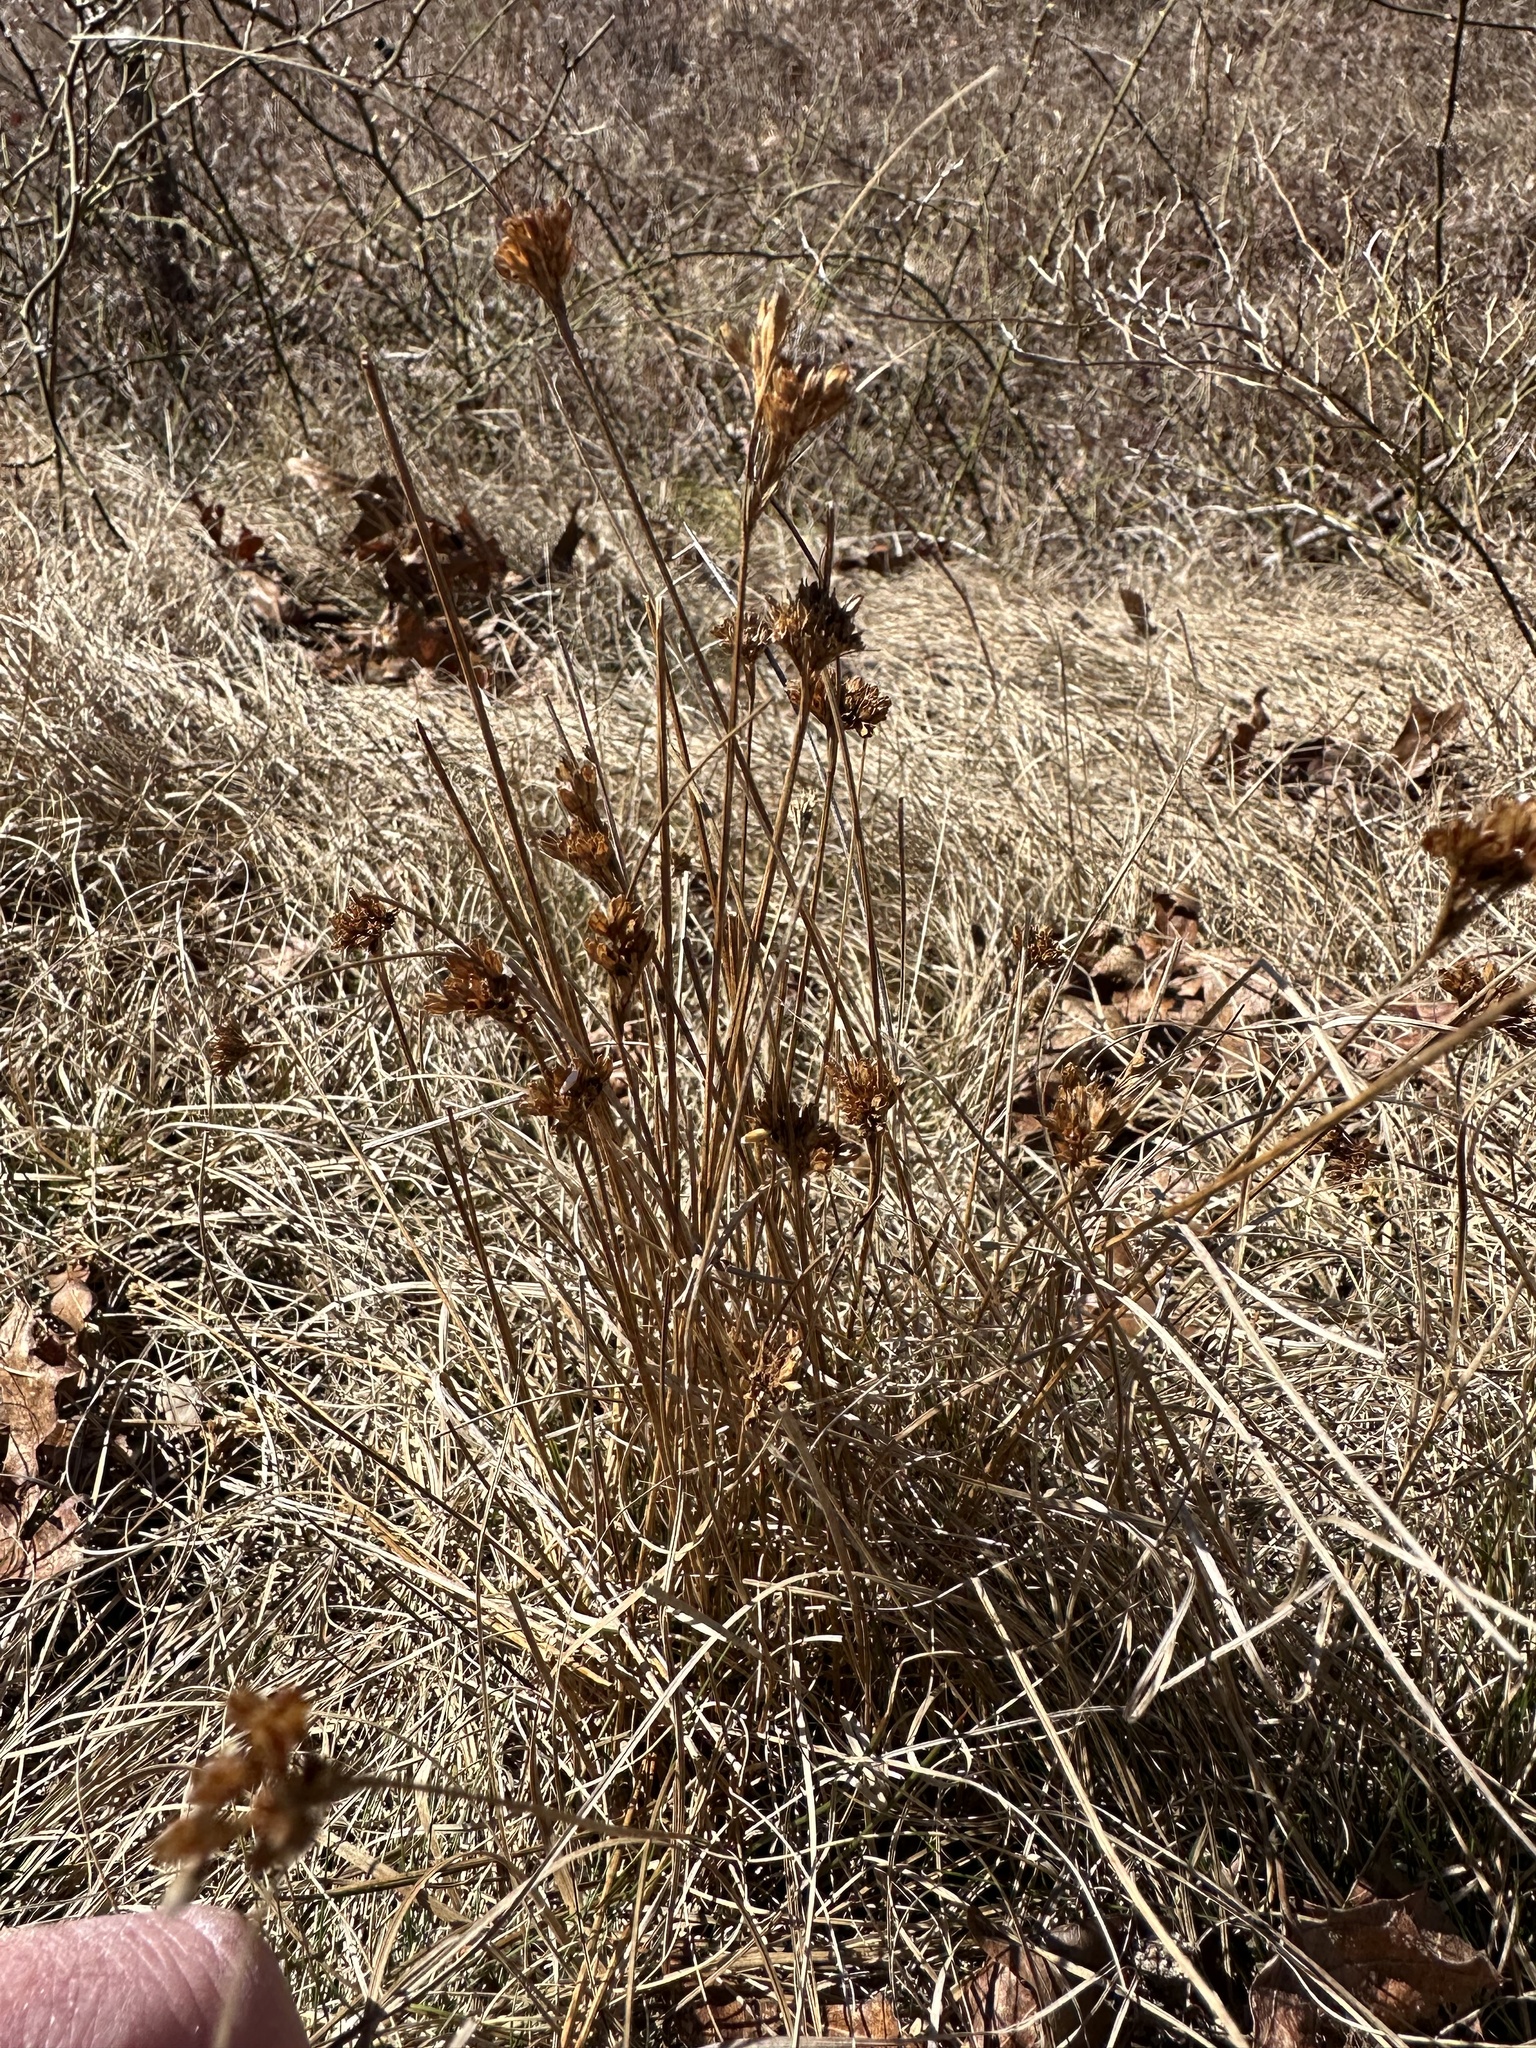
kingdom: Plantae
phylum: Tracheophyta
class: Liliopsida
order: Poales
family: Juncaceae
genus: Juncus
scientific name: Juncus greenei
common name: Greene's rush
